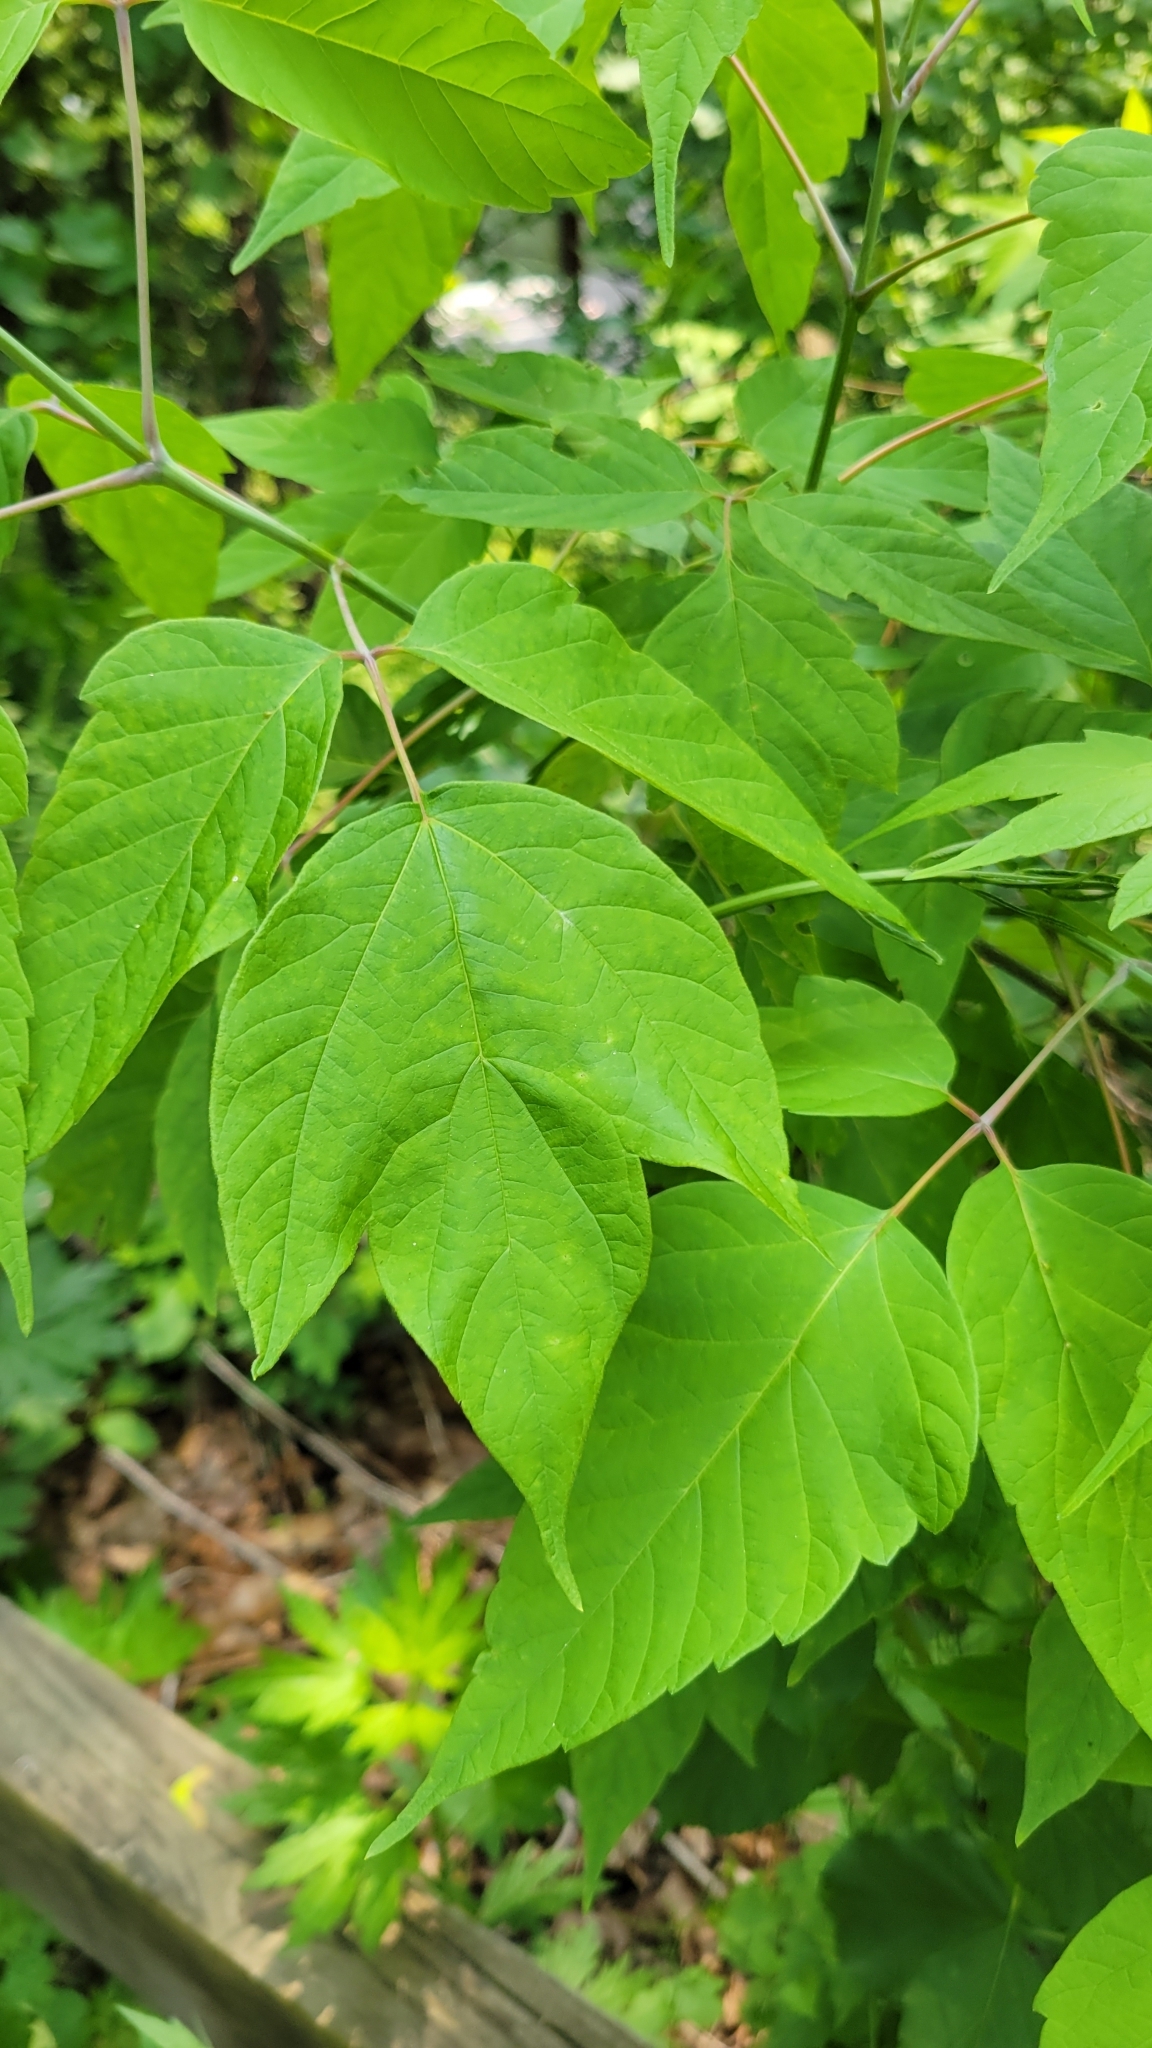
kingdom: Plantae
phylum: Tracheophyta
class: Magnoliopsida
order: Sapindales
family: Sapindaceae
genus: Acer
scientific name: Acer negundo
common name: Ashleaf maple
